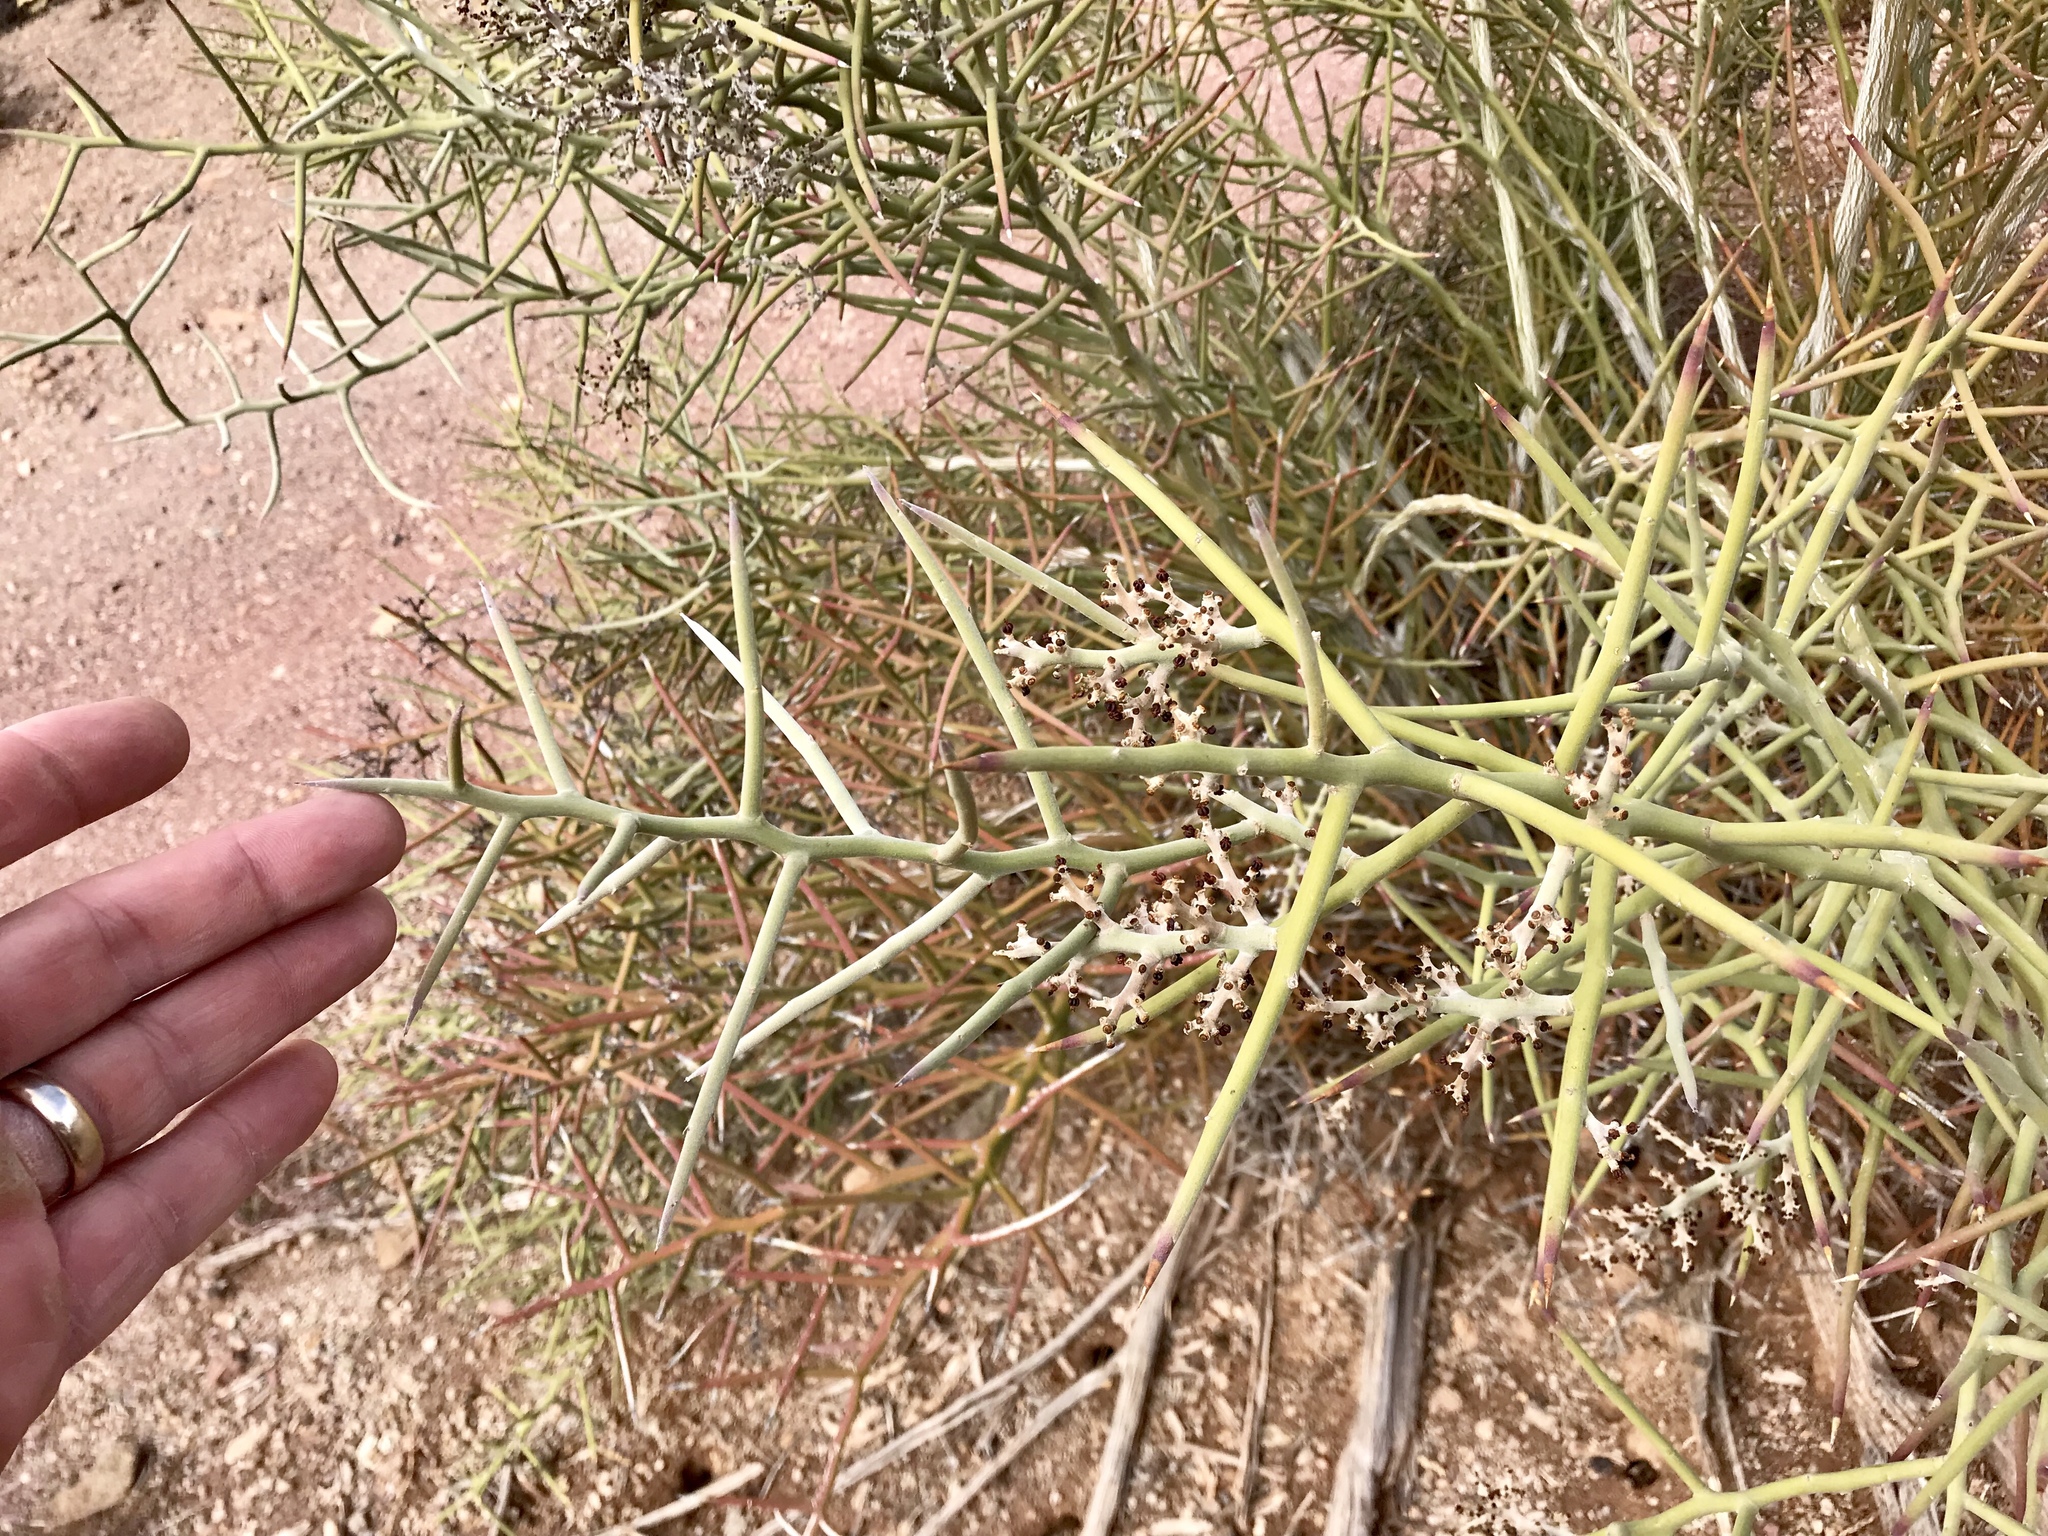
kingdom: Plantae
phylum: Tracheophyta
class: Magnoliopsida
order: Sapindales
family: Simaroubaceae
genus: Holacantha
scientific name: Holacantha emoryi
